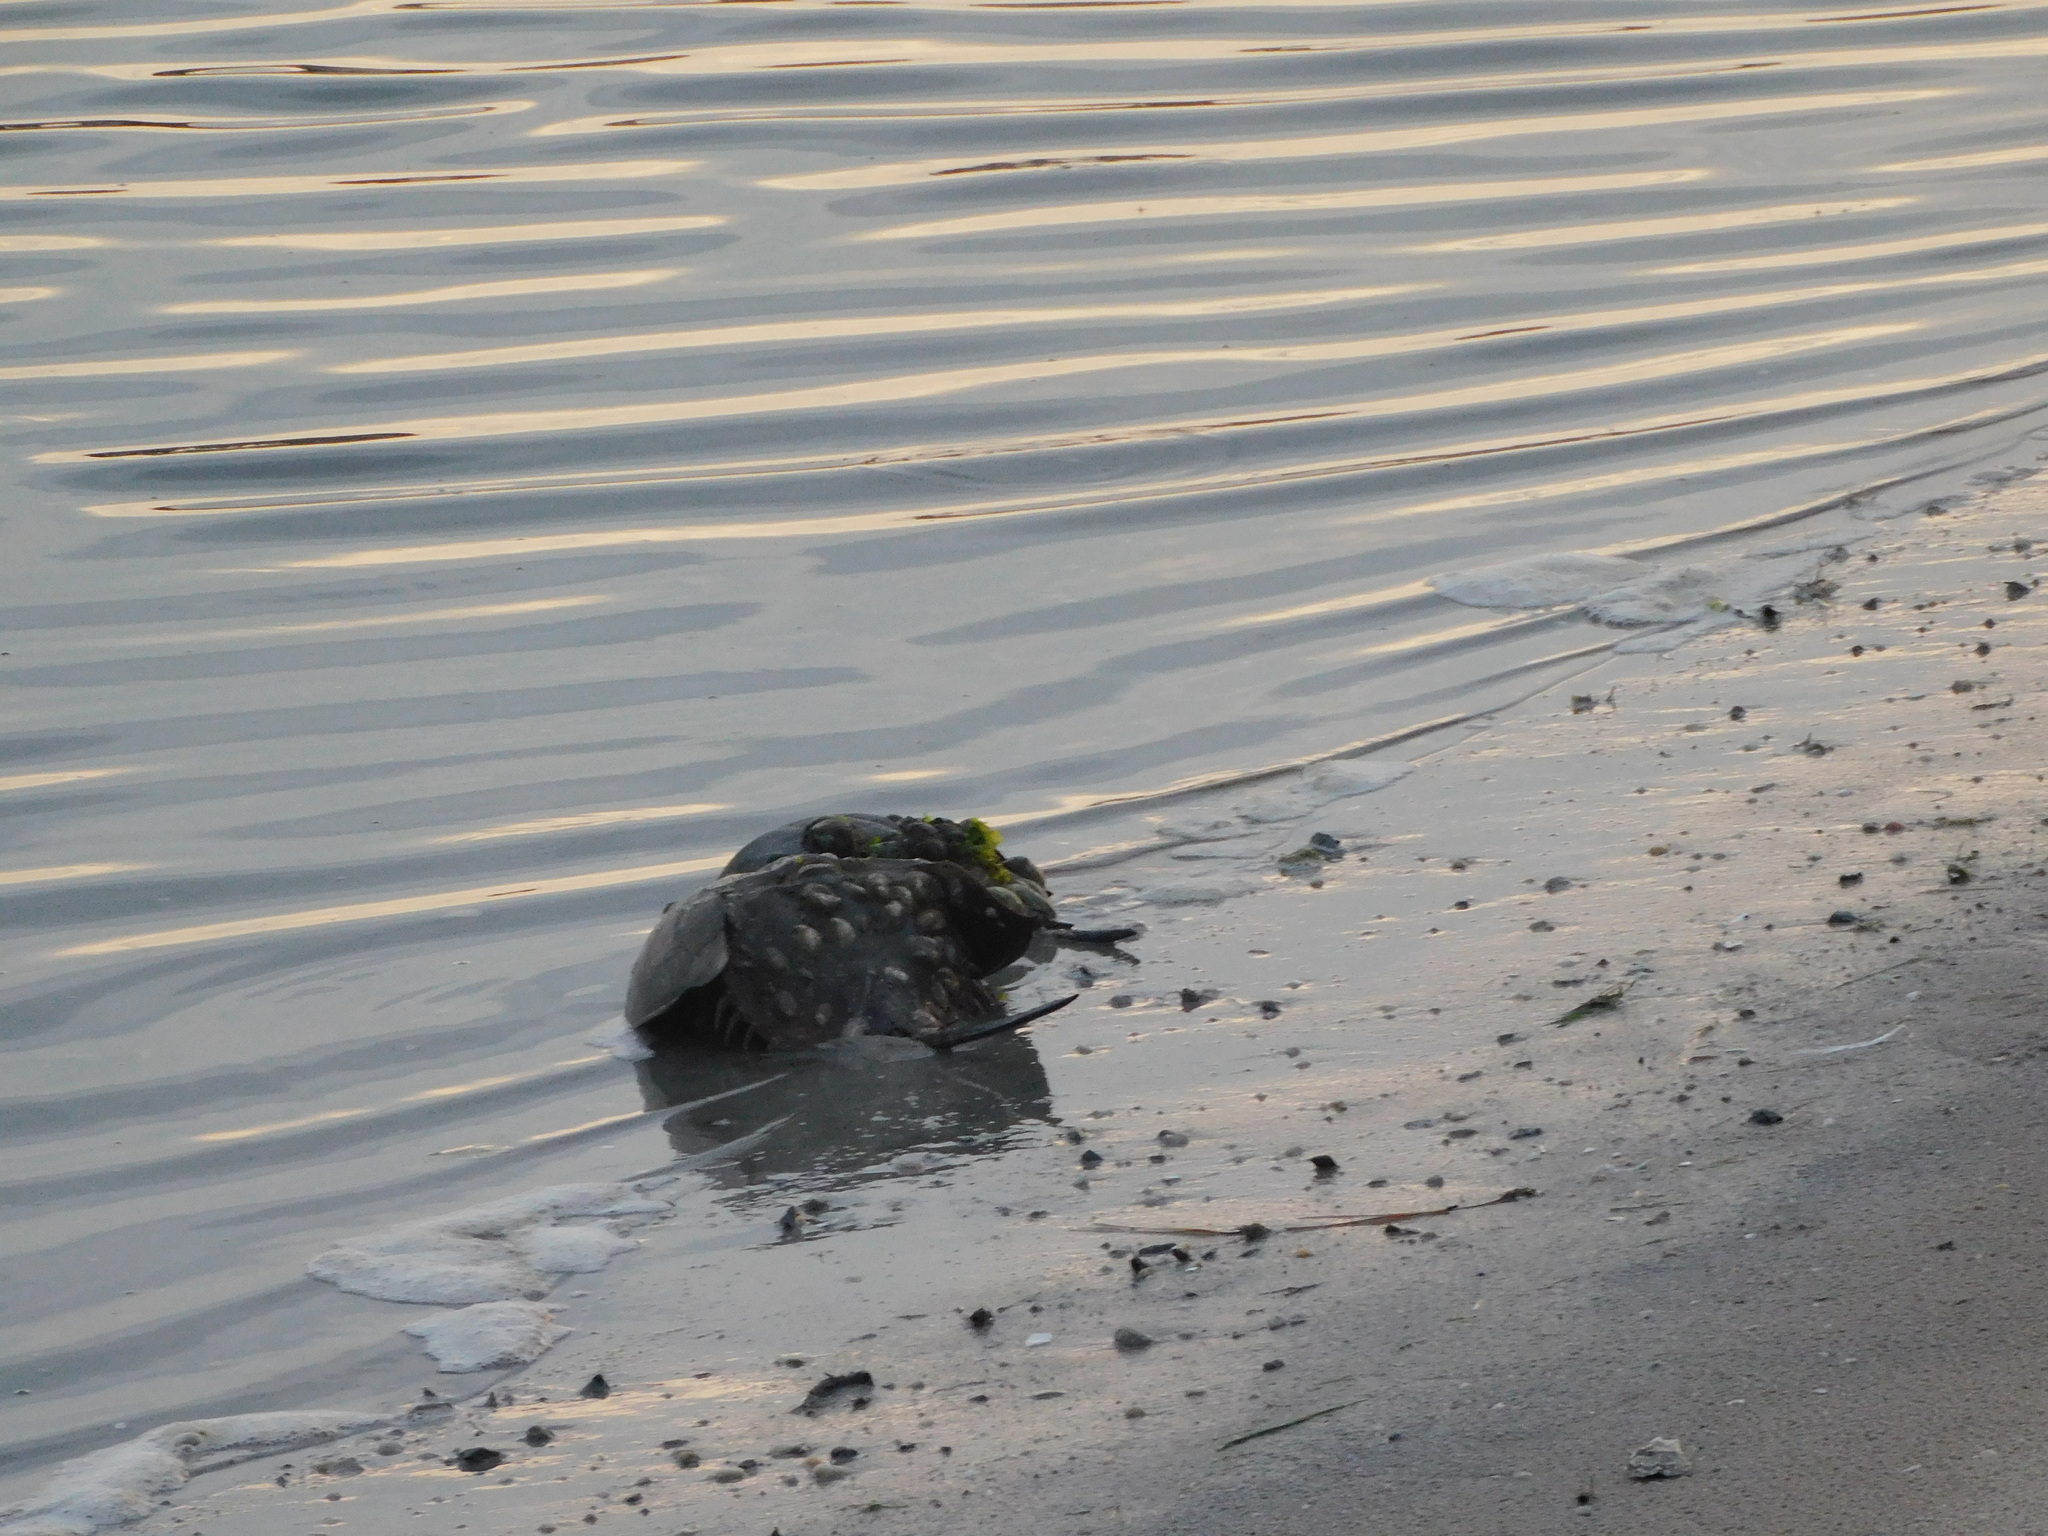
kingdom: Animalia
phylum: Arthropoda
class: Merostomata
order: Xiphosurida
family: Limulidae
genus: Limulus
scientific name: Limulus polyphemus
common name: Horseshoe crab
